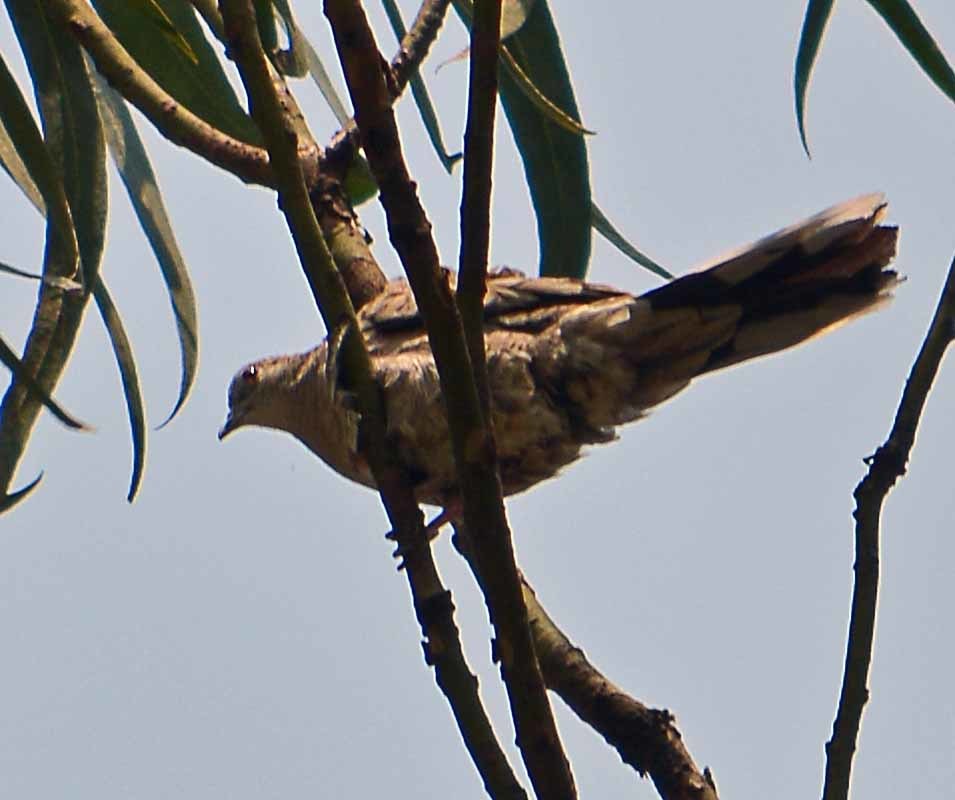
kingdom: Animalia
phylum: Chordata
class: Aves
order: Columbiformes
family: Columbidae
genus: Columbina
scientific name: Columbina inca
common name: Inca dove
